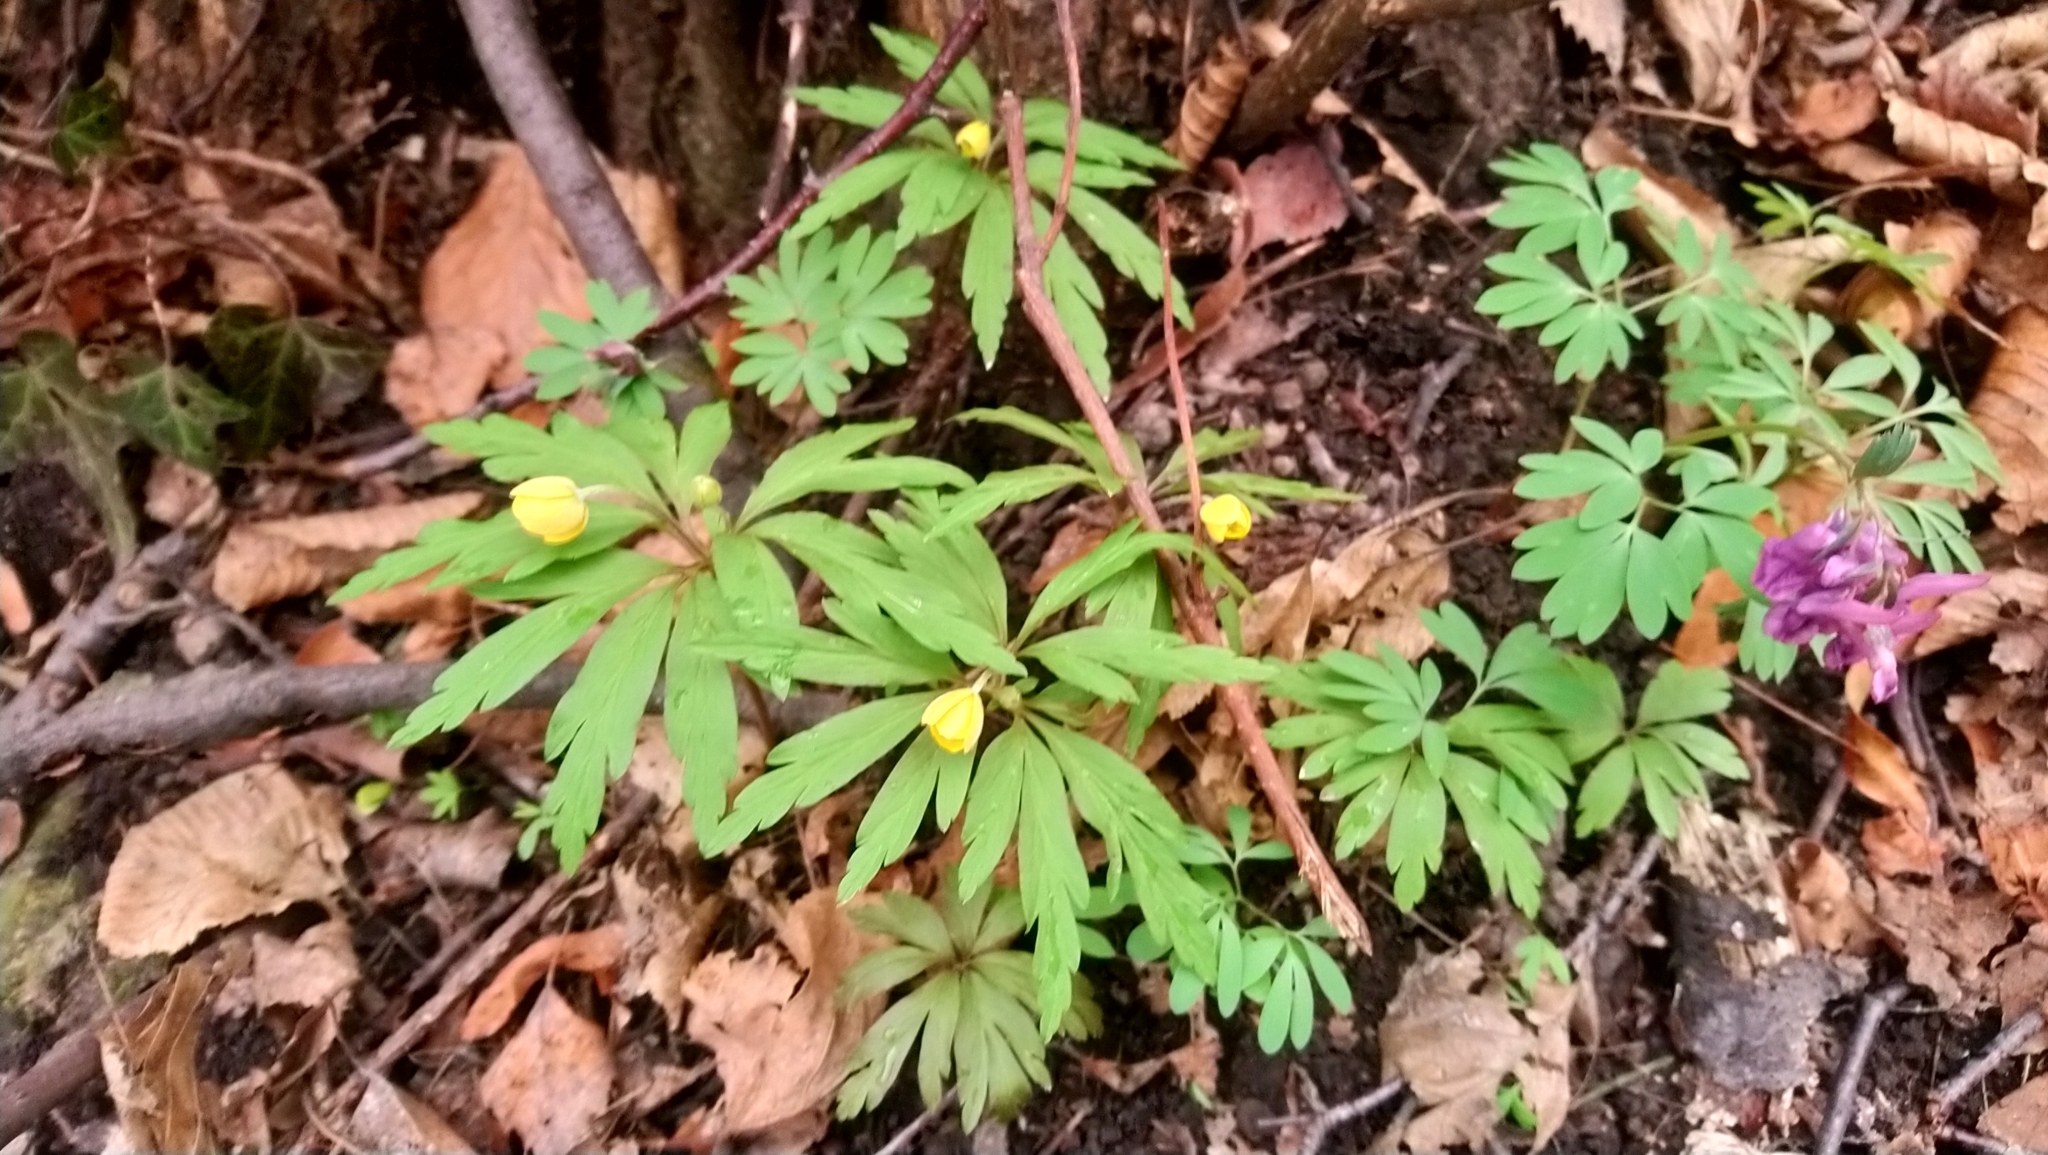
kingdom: Plantae
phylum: Tracheophyta
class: Magnoliopsida
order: Ranunculales
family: Ranunculaceae
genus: Anemone
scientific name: Anemone ranunculoides
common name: Yellow anemone
